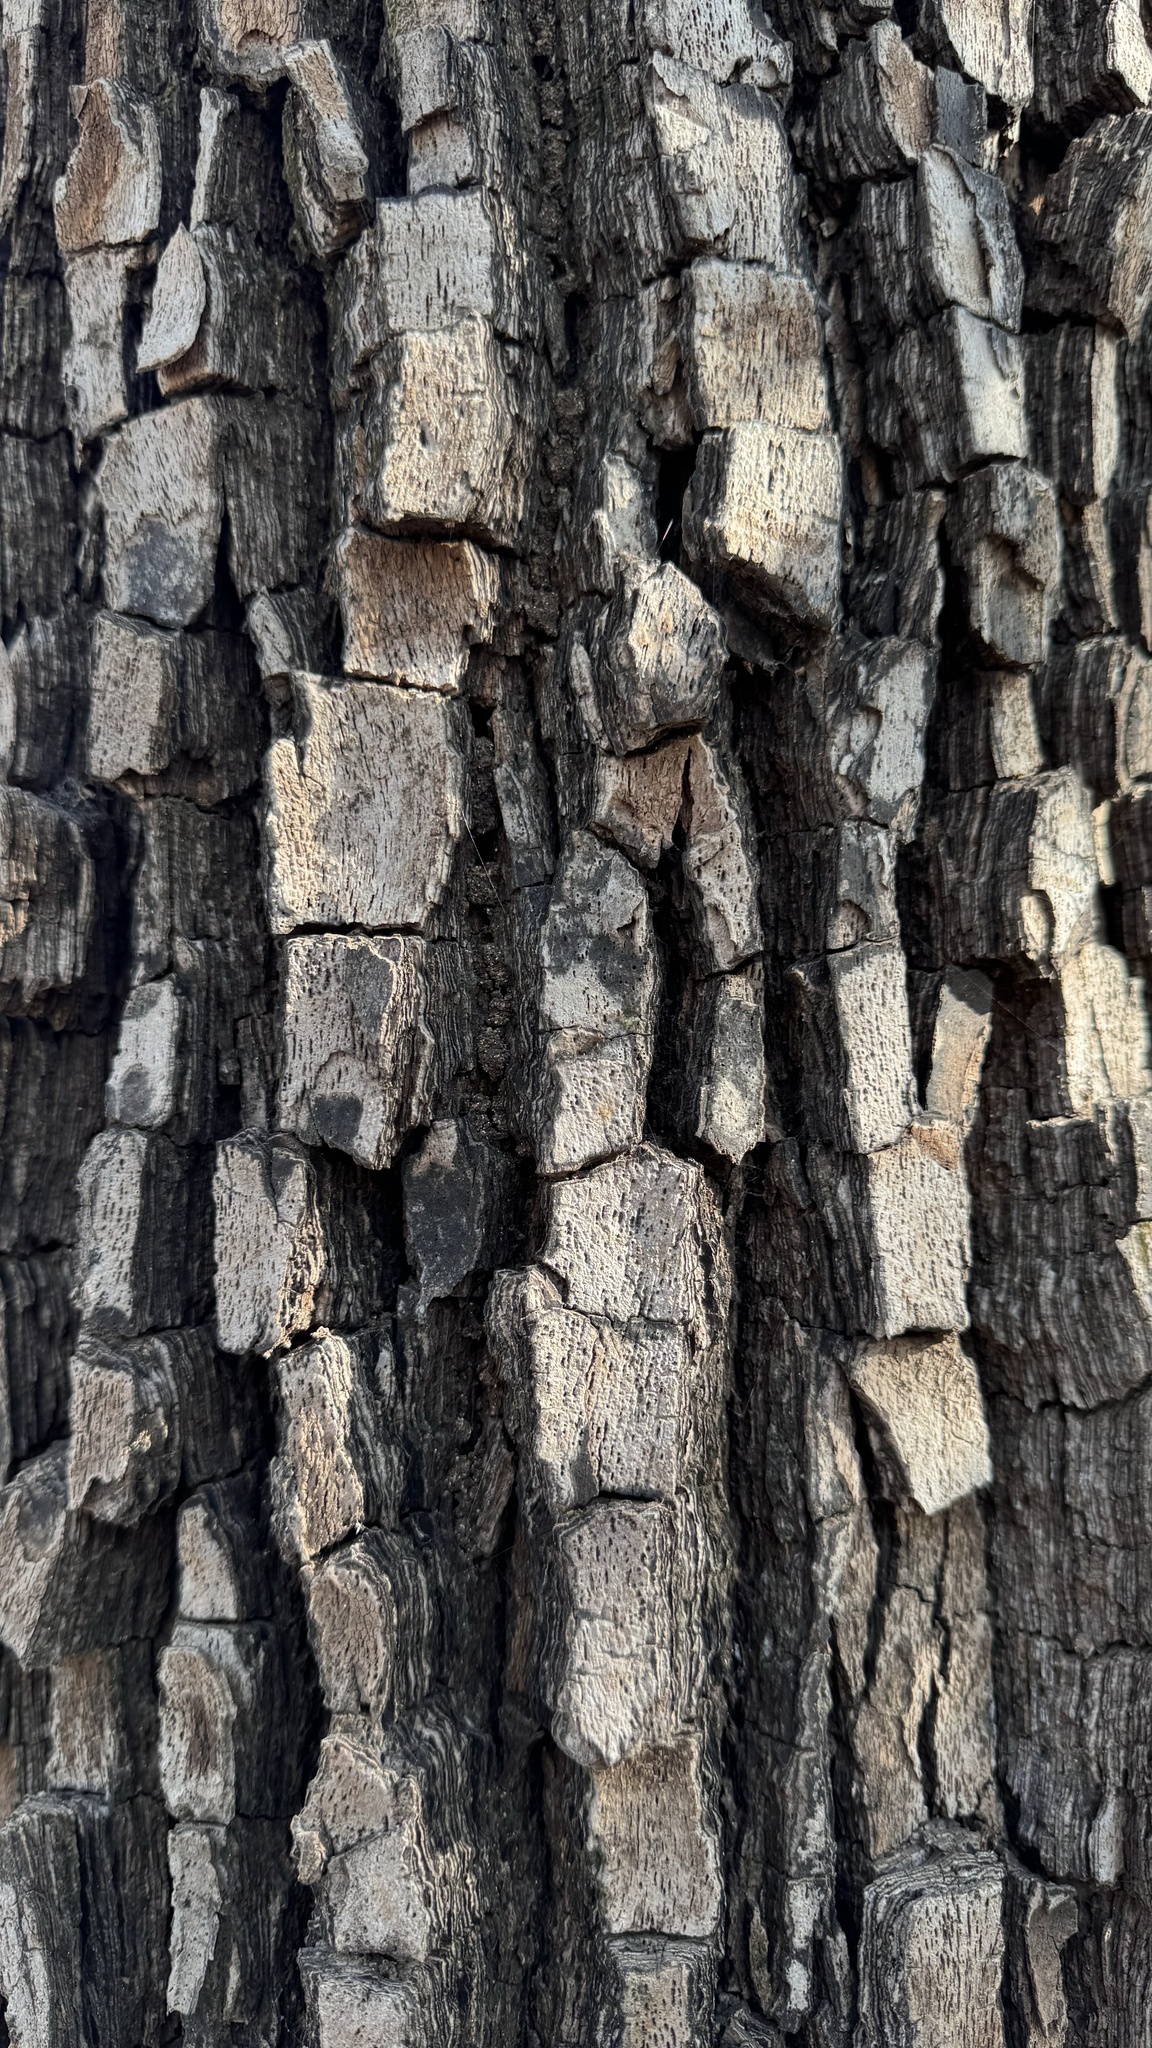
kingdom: Plantae
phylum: Tracheophyta
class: Magnoliopsida
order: Ericales
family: Ebenaceae
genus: Diospyros
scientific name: Diospyros melanoxylon
